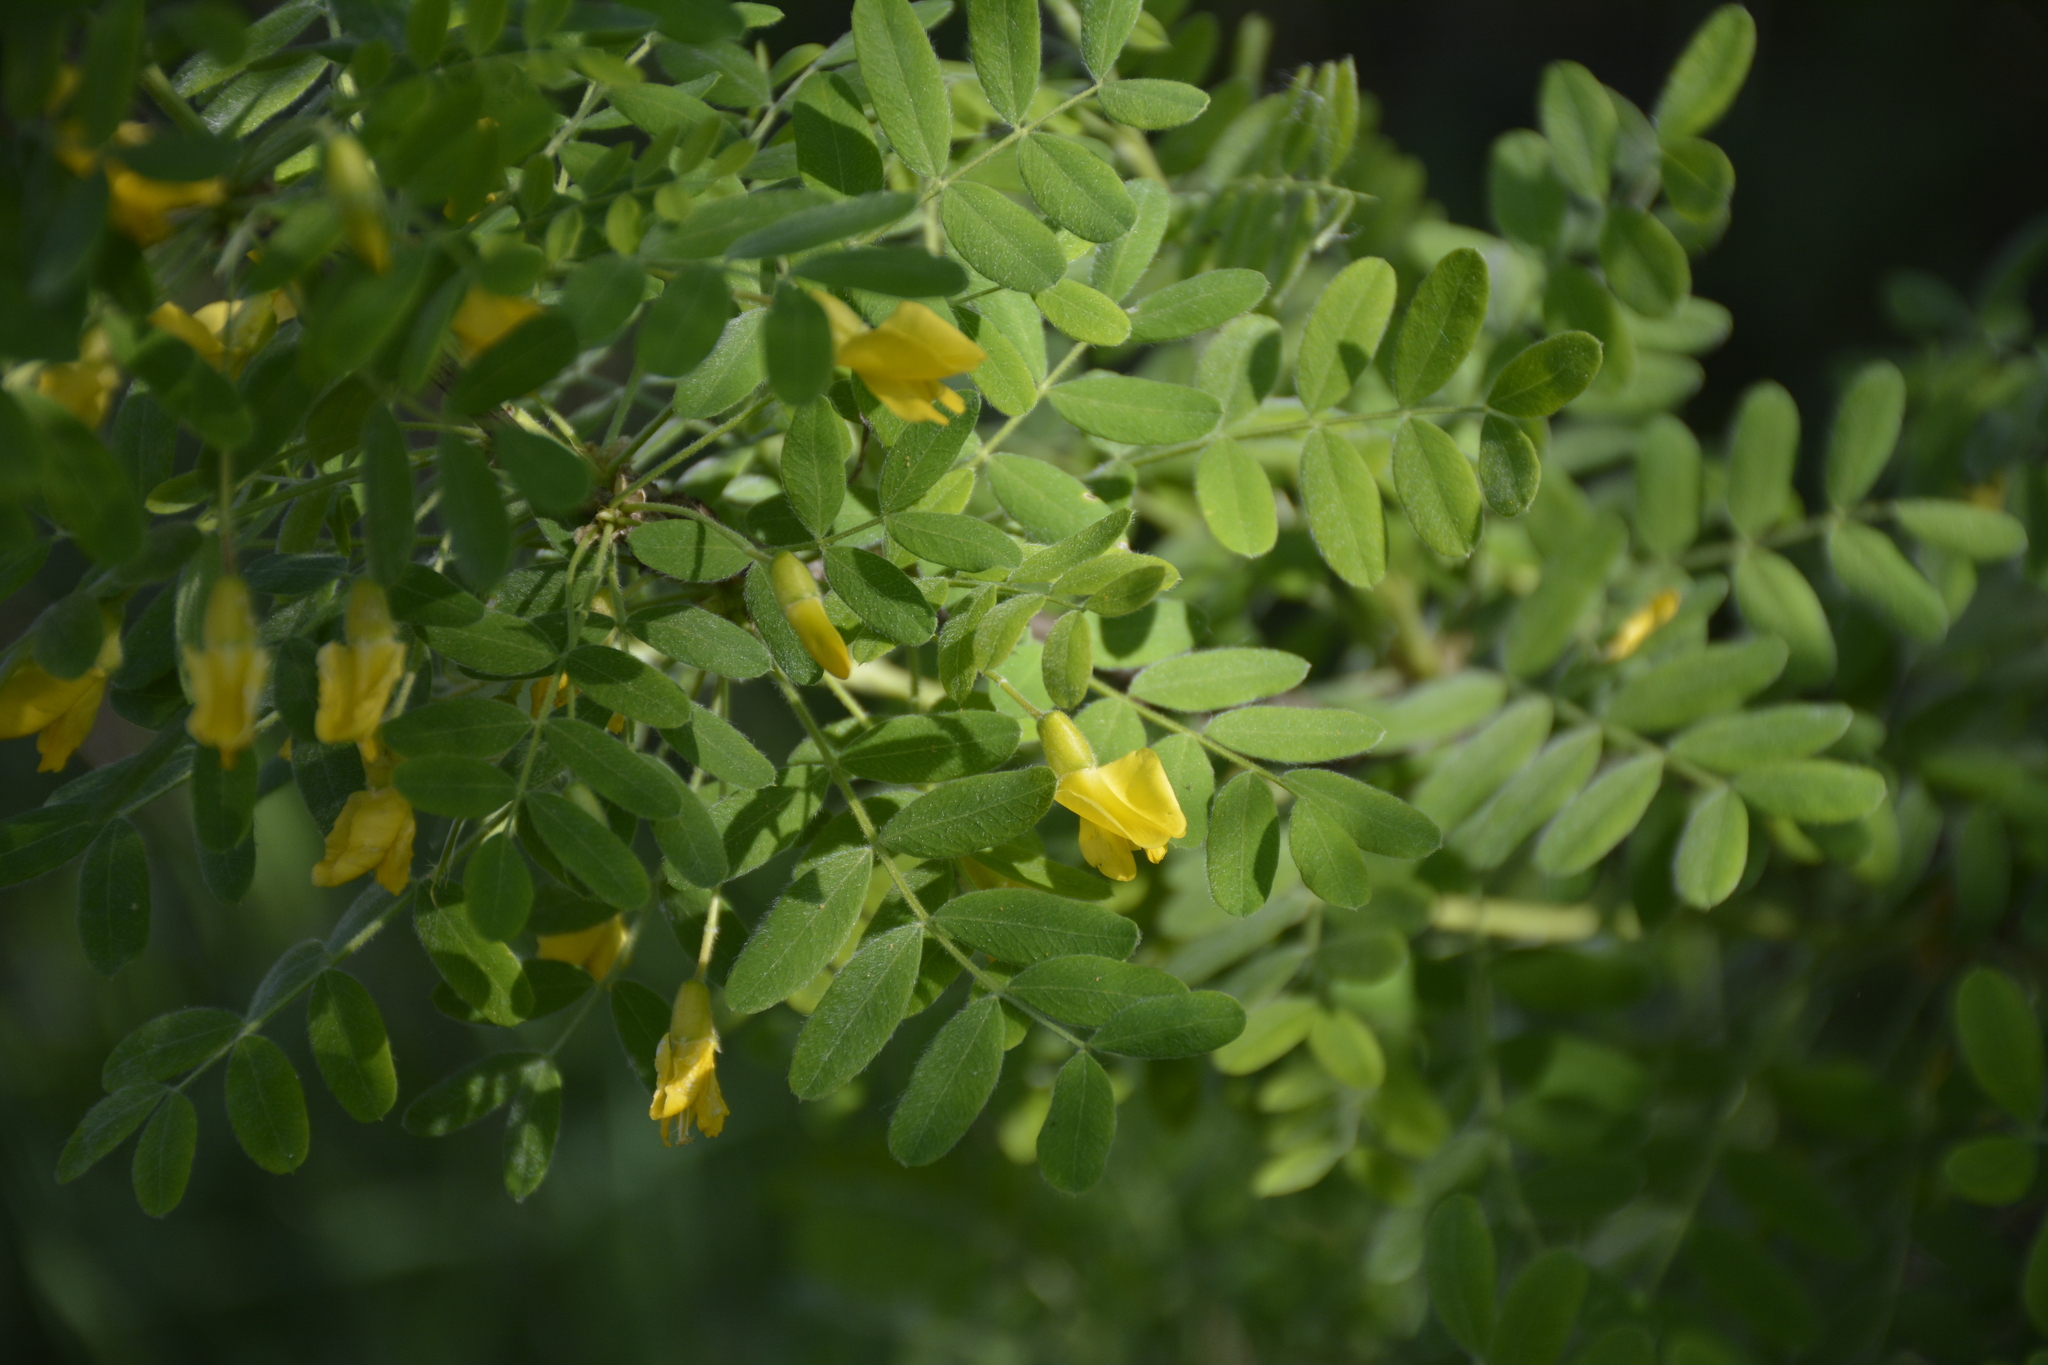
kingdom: Plantae
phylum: Tracheophyta
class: Magnoliopsida
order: Fabales
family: Fabaceae
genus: Caragana
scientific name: Caragana arborescens
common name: Siberian peashrub
